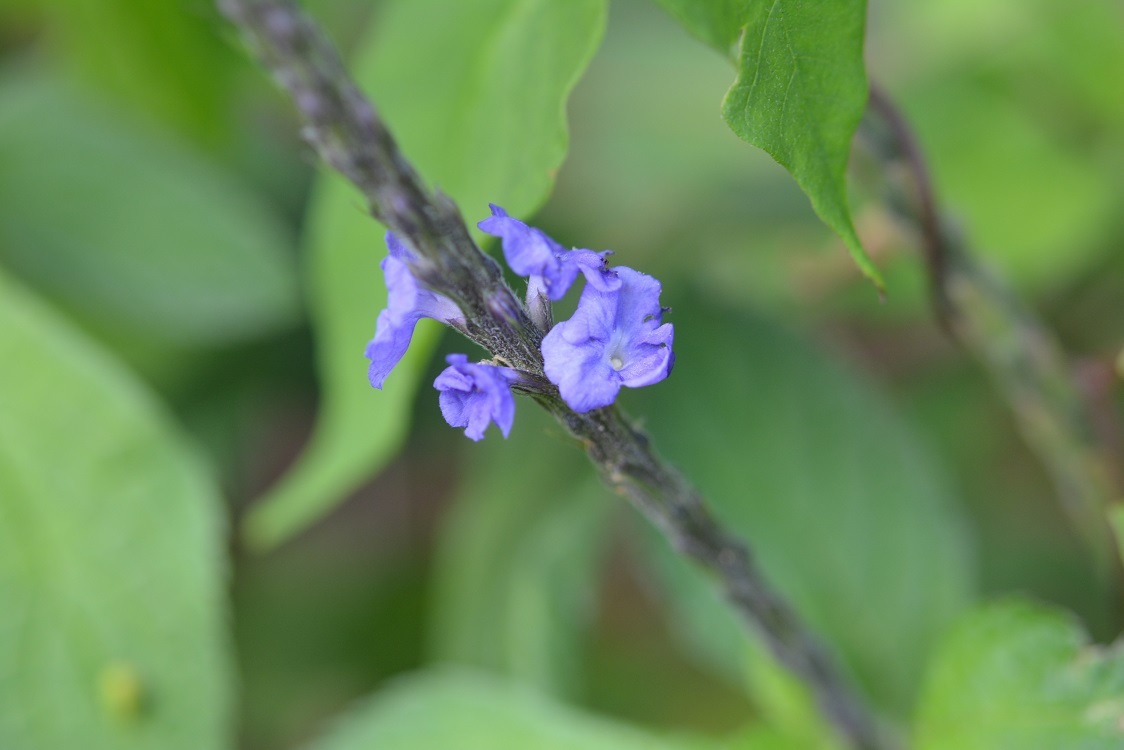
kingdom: Plantae
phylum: Tracheophyta
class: Magnoliopsida
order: Lamiales
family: Verbenaceae
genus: Stachytarpheta
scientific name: Stachytarpheta cayennensis
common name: Cayenne porterweed
